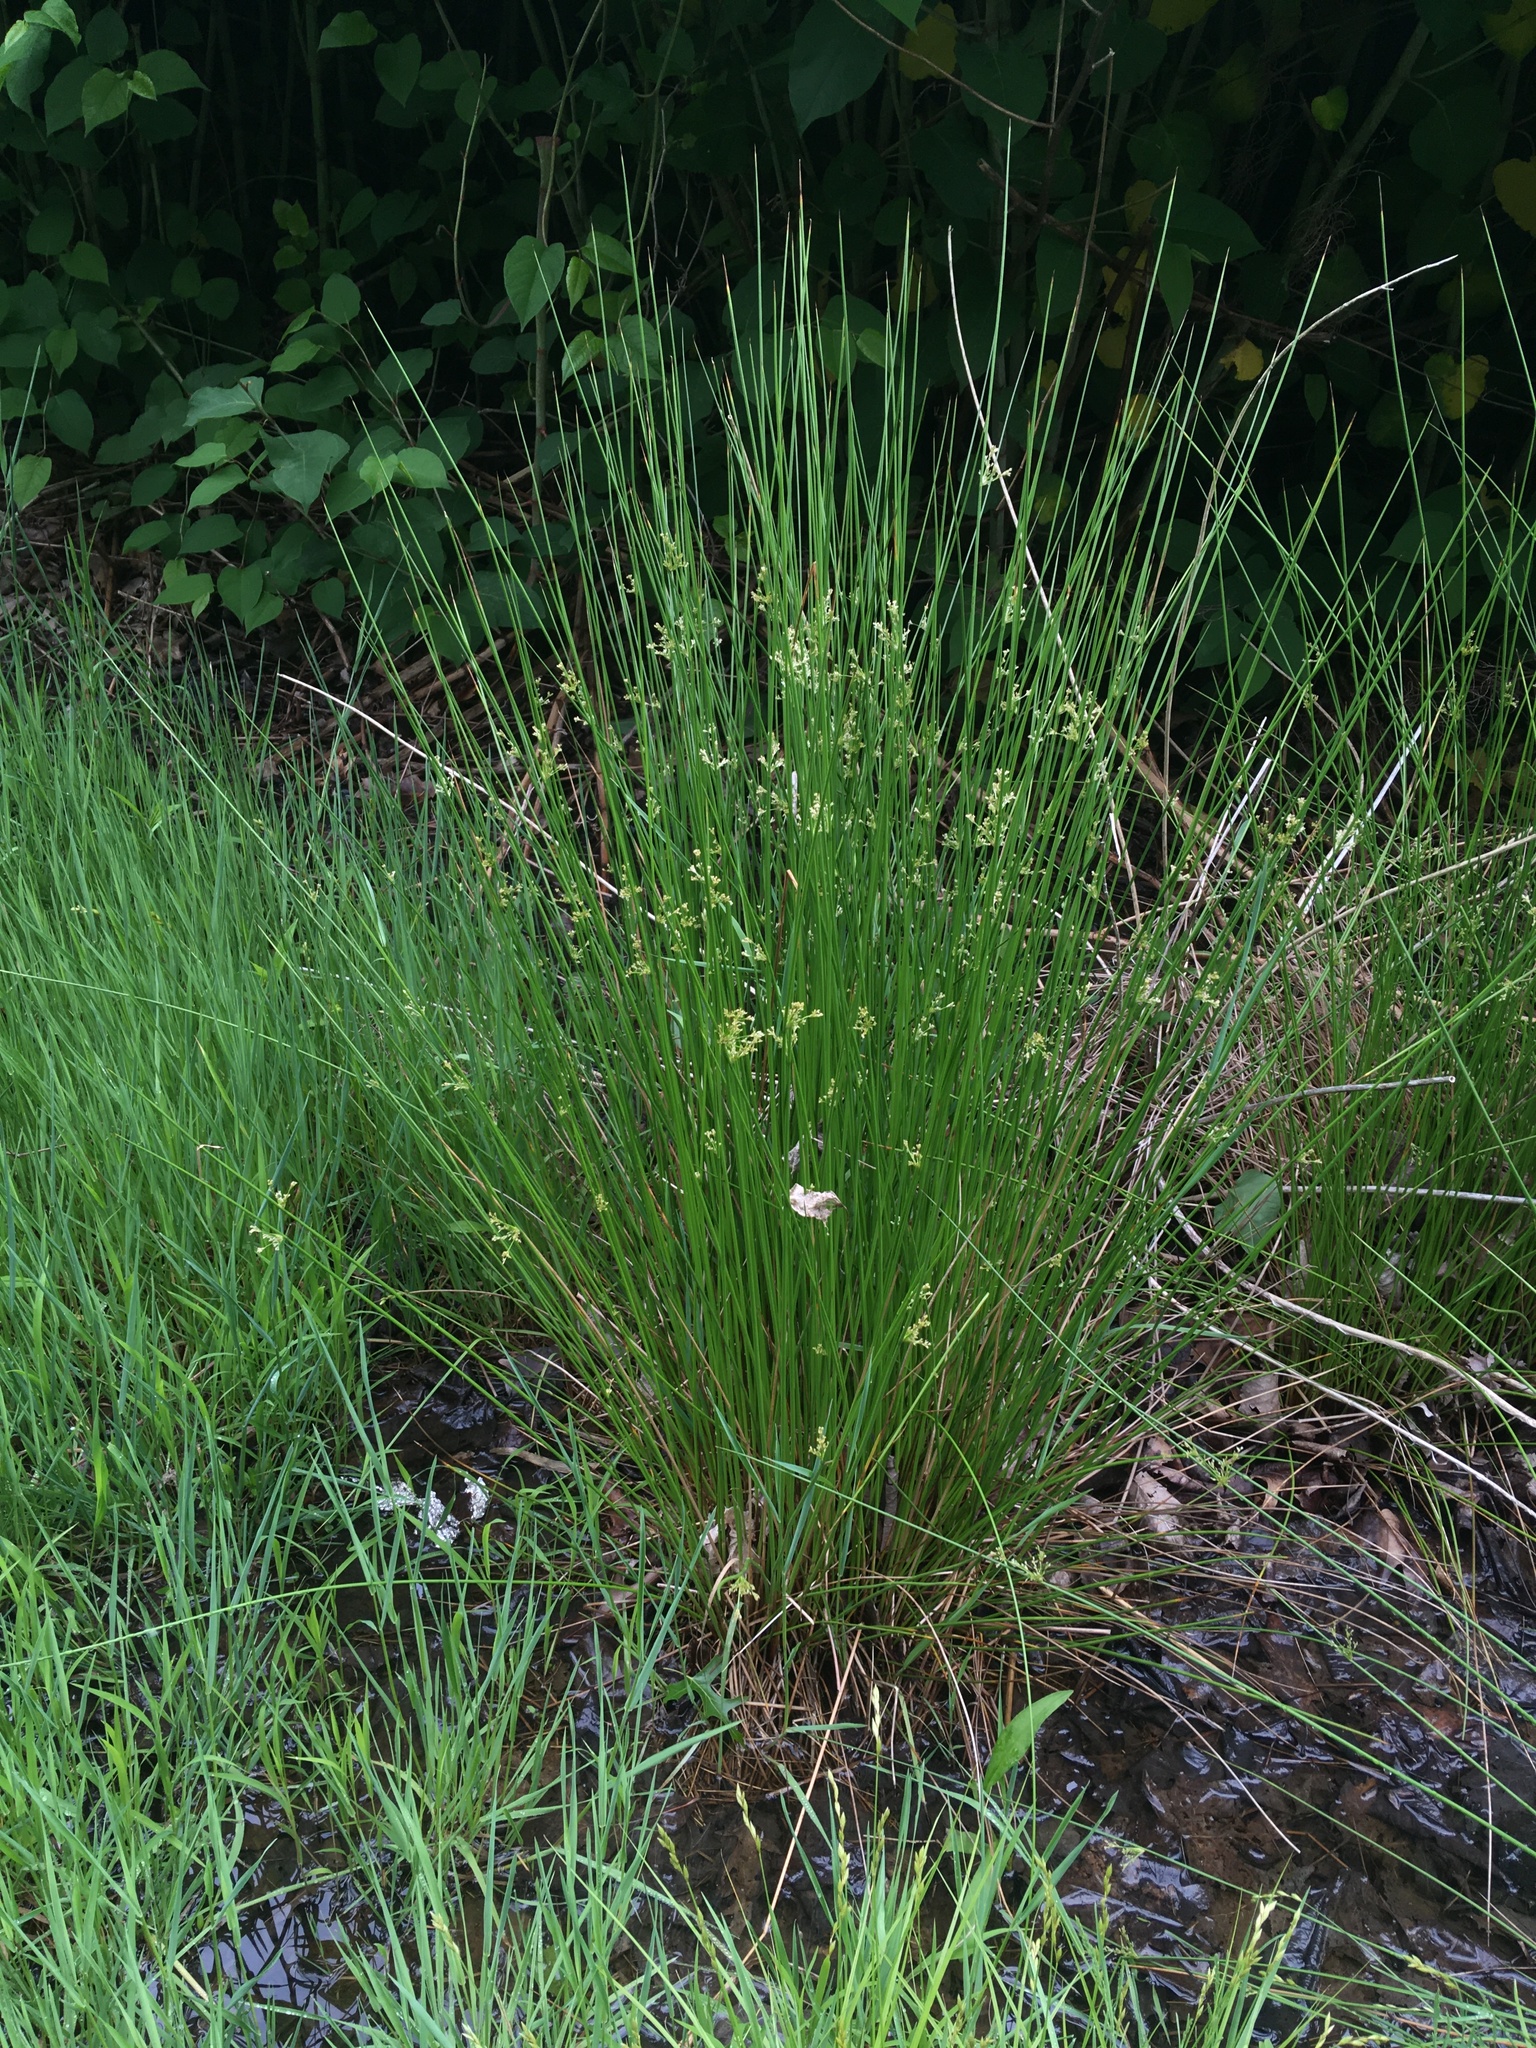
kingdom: Plantae
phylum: Tracheophyta
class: Liliopsida
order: Poales
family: Juncaceae
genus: Juncus
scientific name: Juncus effusus
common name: Soft rush
